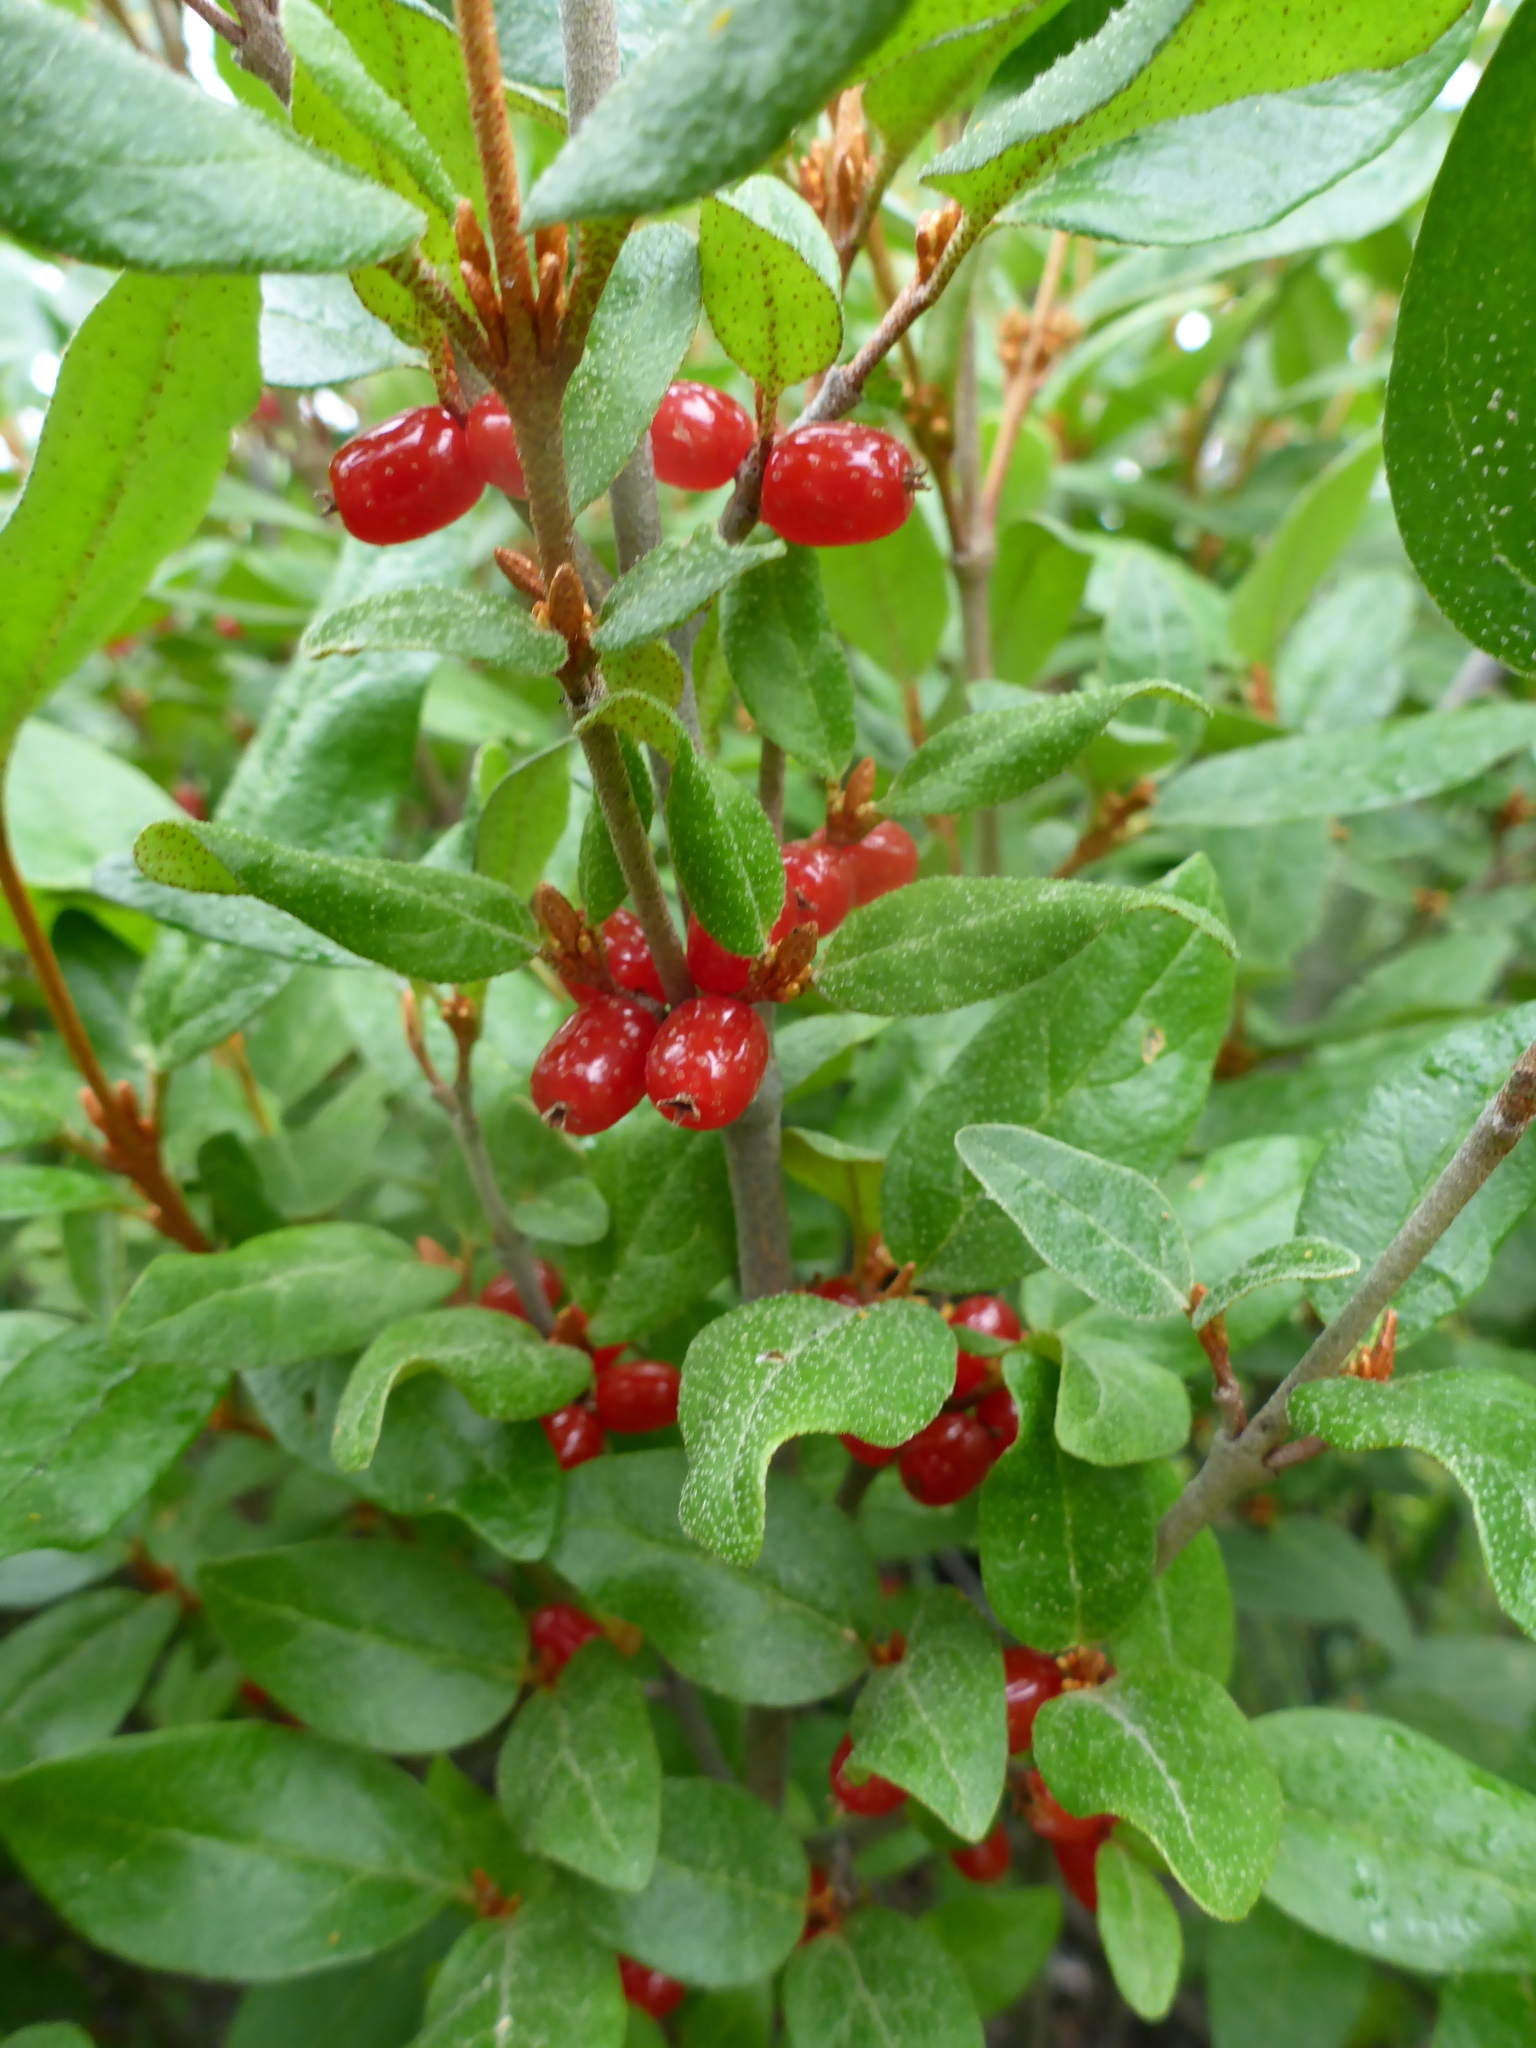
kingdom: Plantae
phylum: Tracheophyta
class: Magnoliopsida
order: Rosales
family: Elaeagnaceae
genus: Shepherdia
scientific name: Shepherdia canadensis
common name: Soapberry
